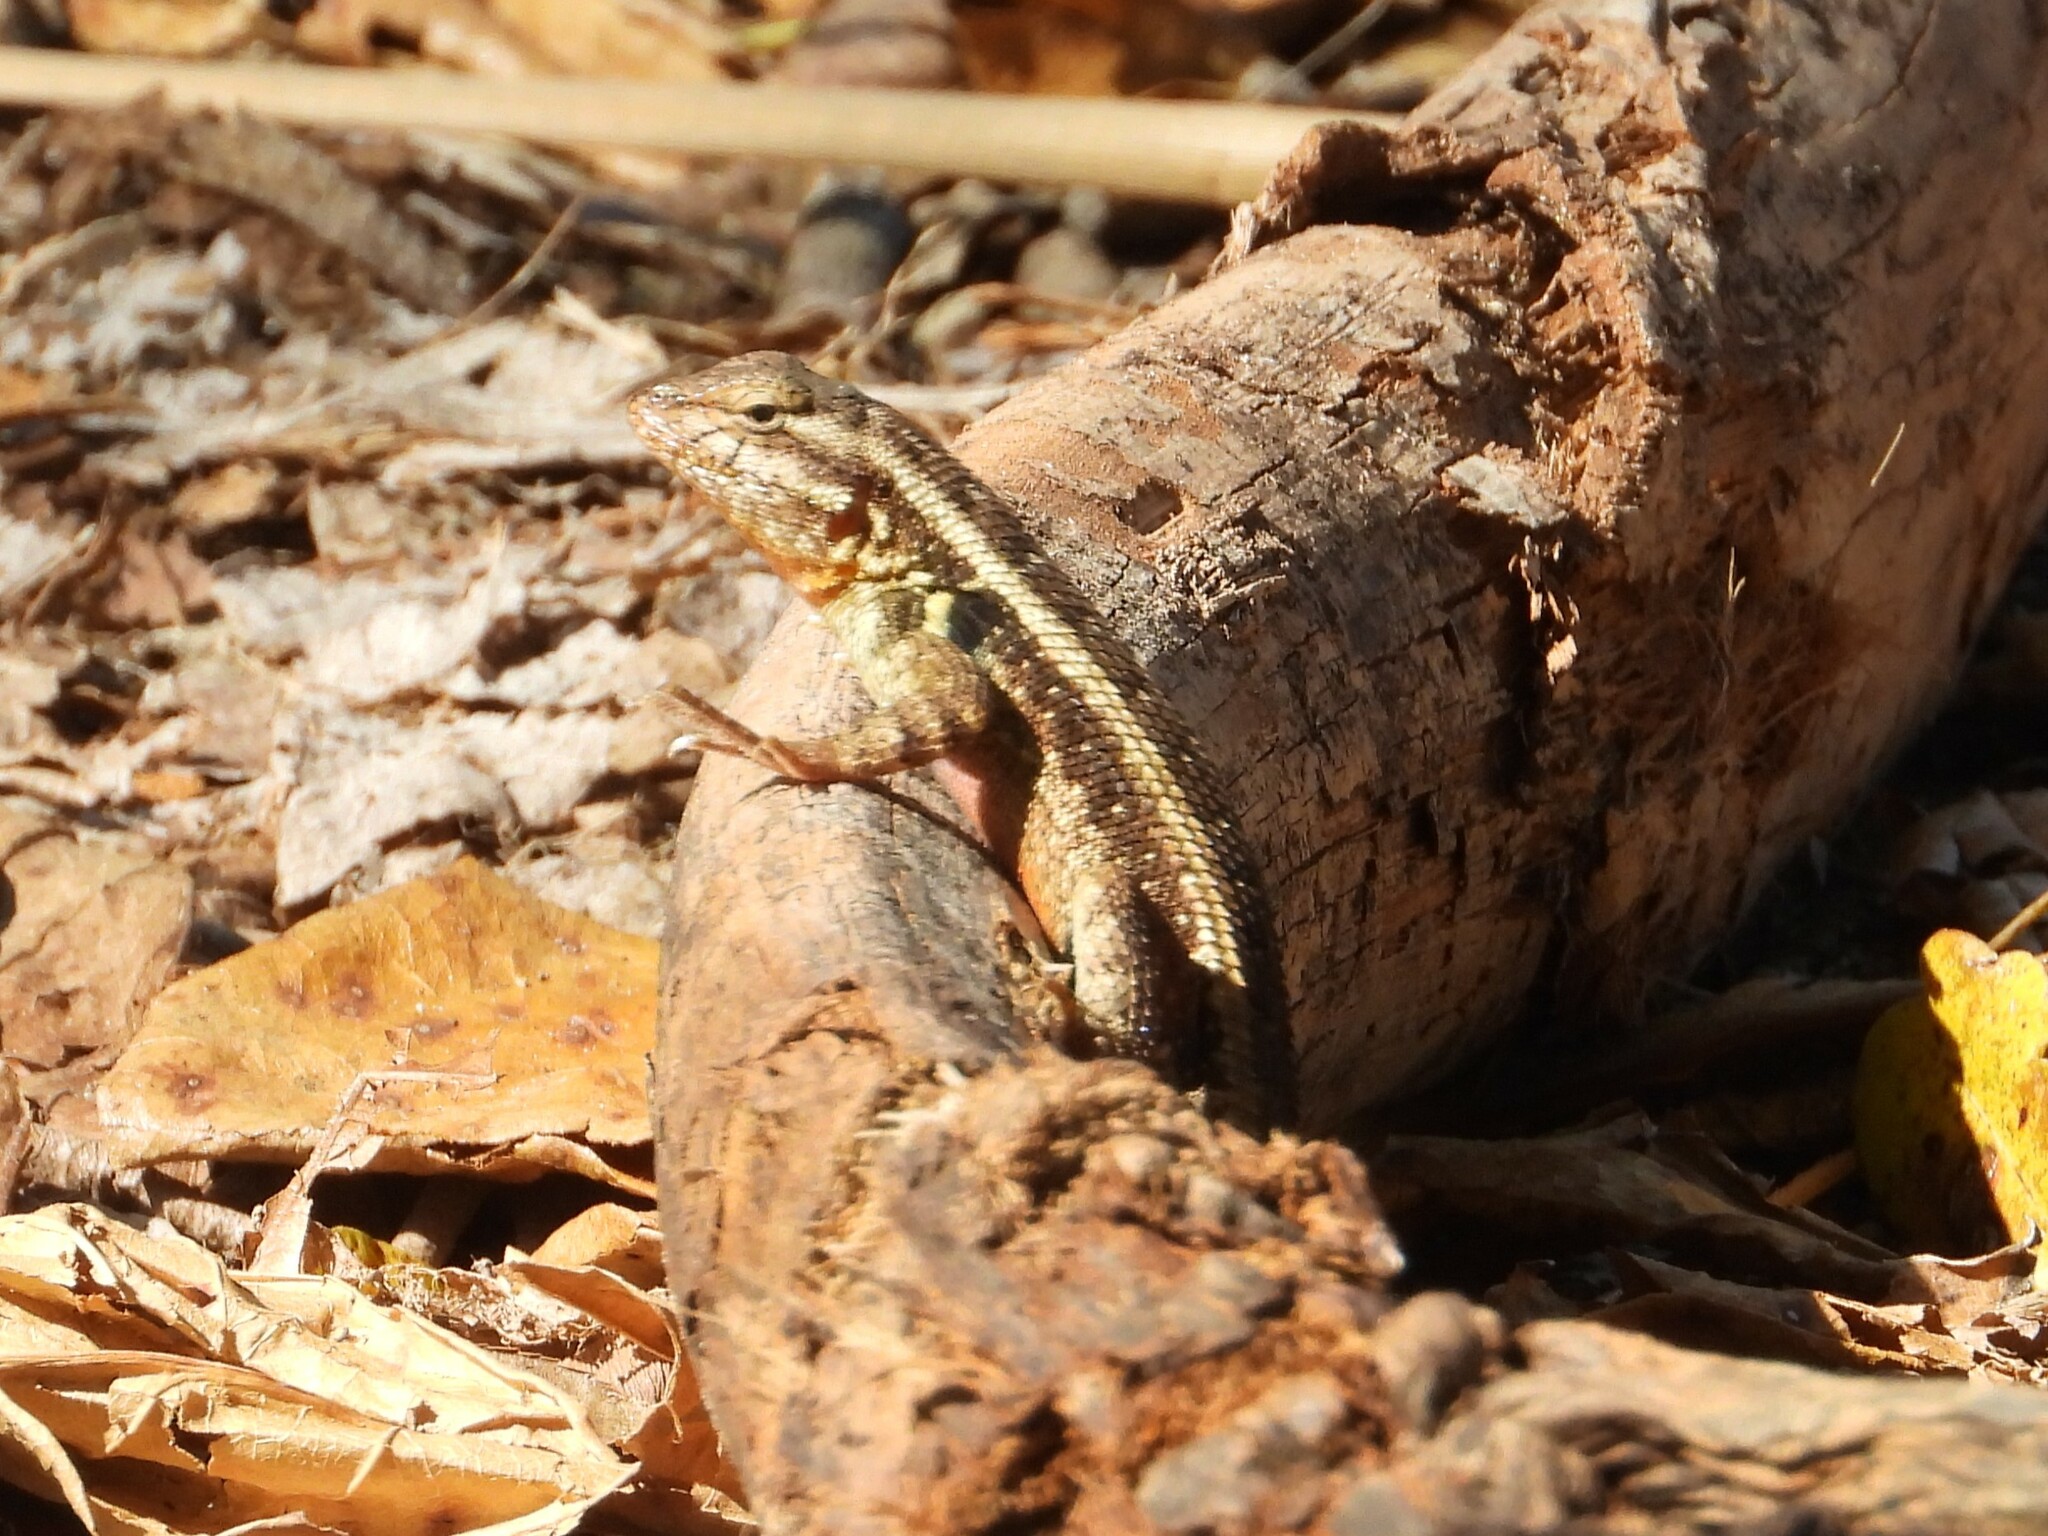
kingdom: Animalia
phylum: Chordata
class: Squamata
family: Phrynosomatidae
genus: Sceloporus
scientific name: Sceloporus variabilis
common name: Rosebelly lizard
